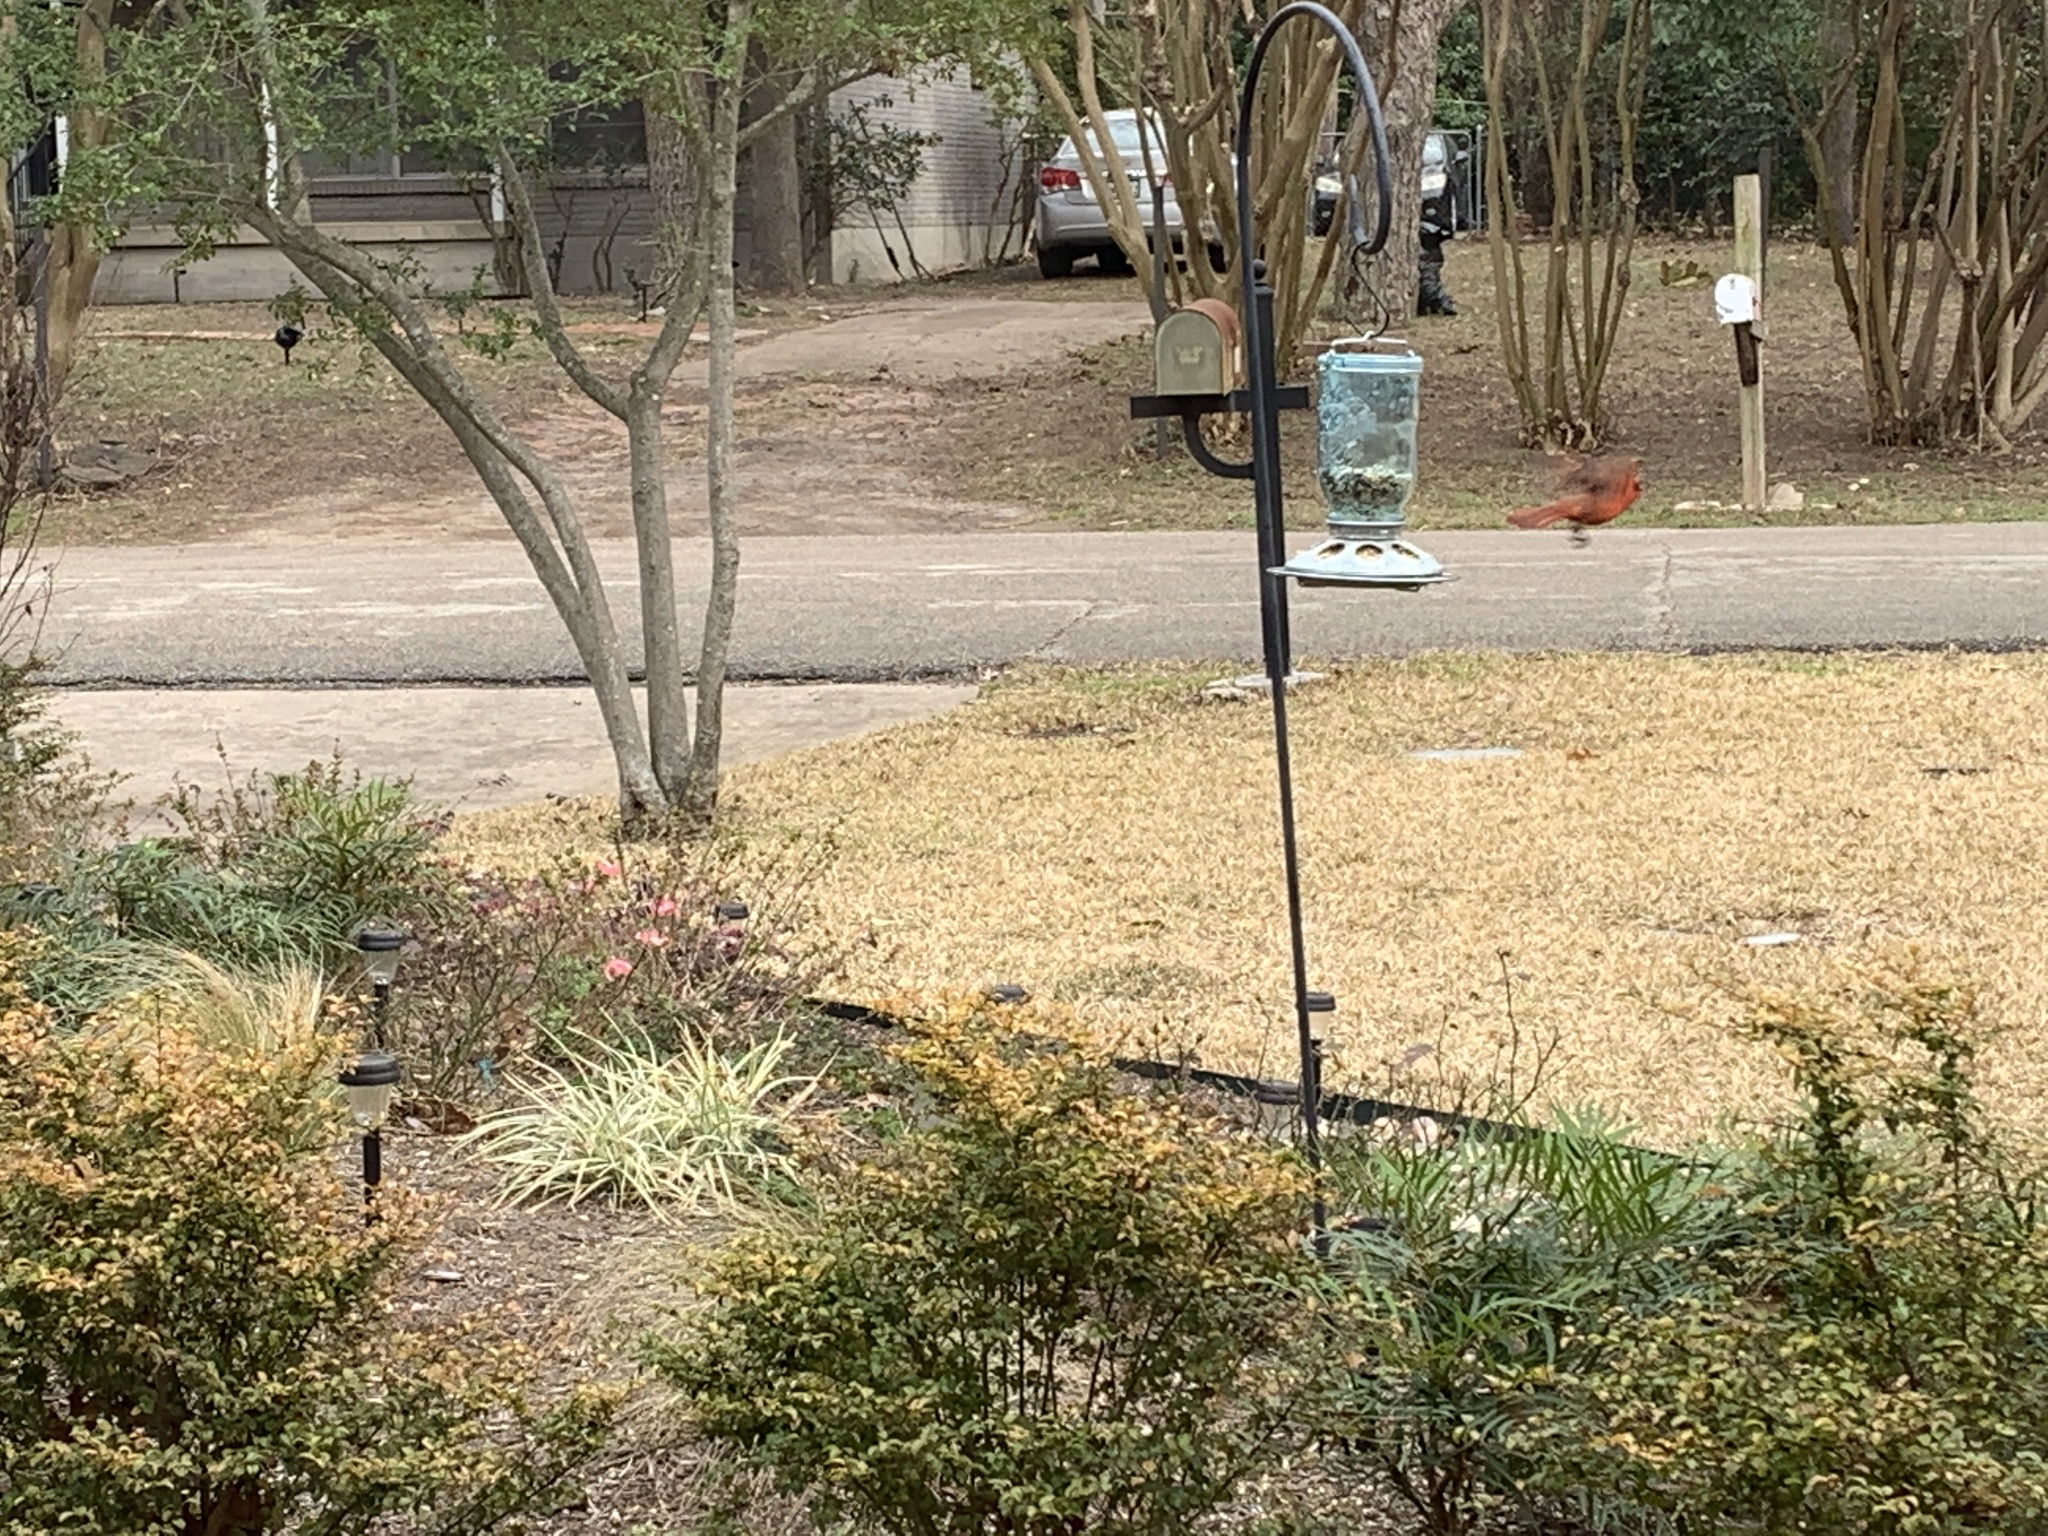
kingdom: Animalia
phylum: Chordata
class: Aves
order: Passeriformes
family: Cardinalidae
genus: Cardinalis
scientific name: Cardinalis cardinalis
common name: Northern cardinal
